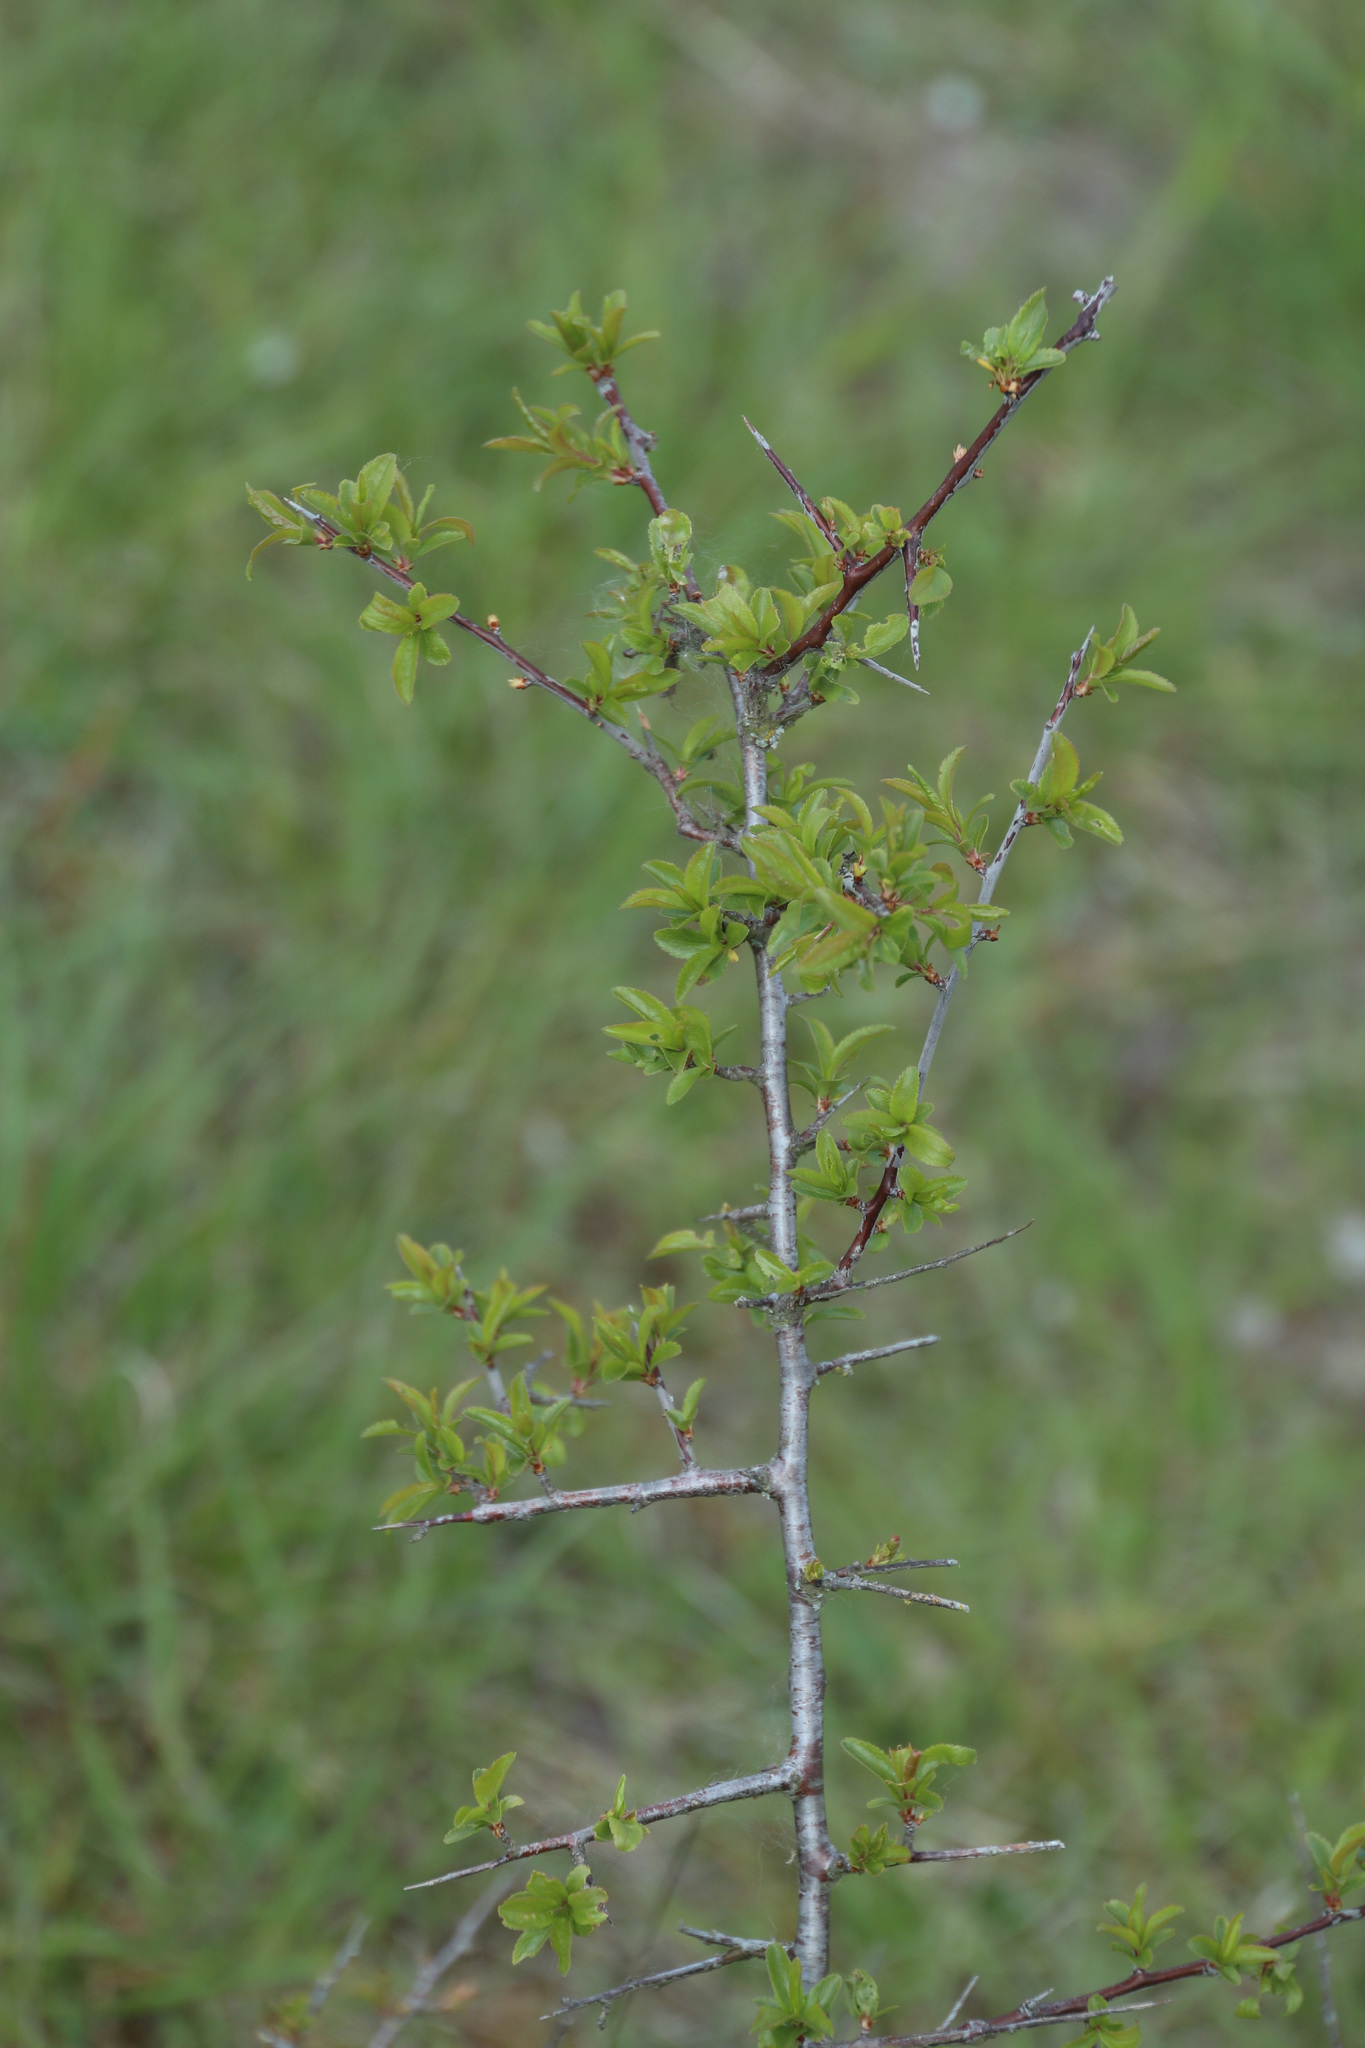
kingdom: Plantae
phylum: Tracheophyta
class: Magnoliopsida
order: Rosales
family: Rosaceae
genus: Prunus
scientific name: Prunus spinosa
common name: Blackthorn
